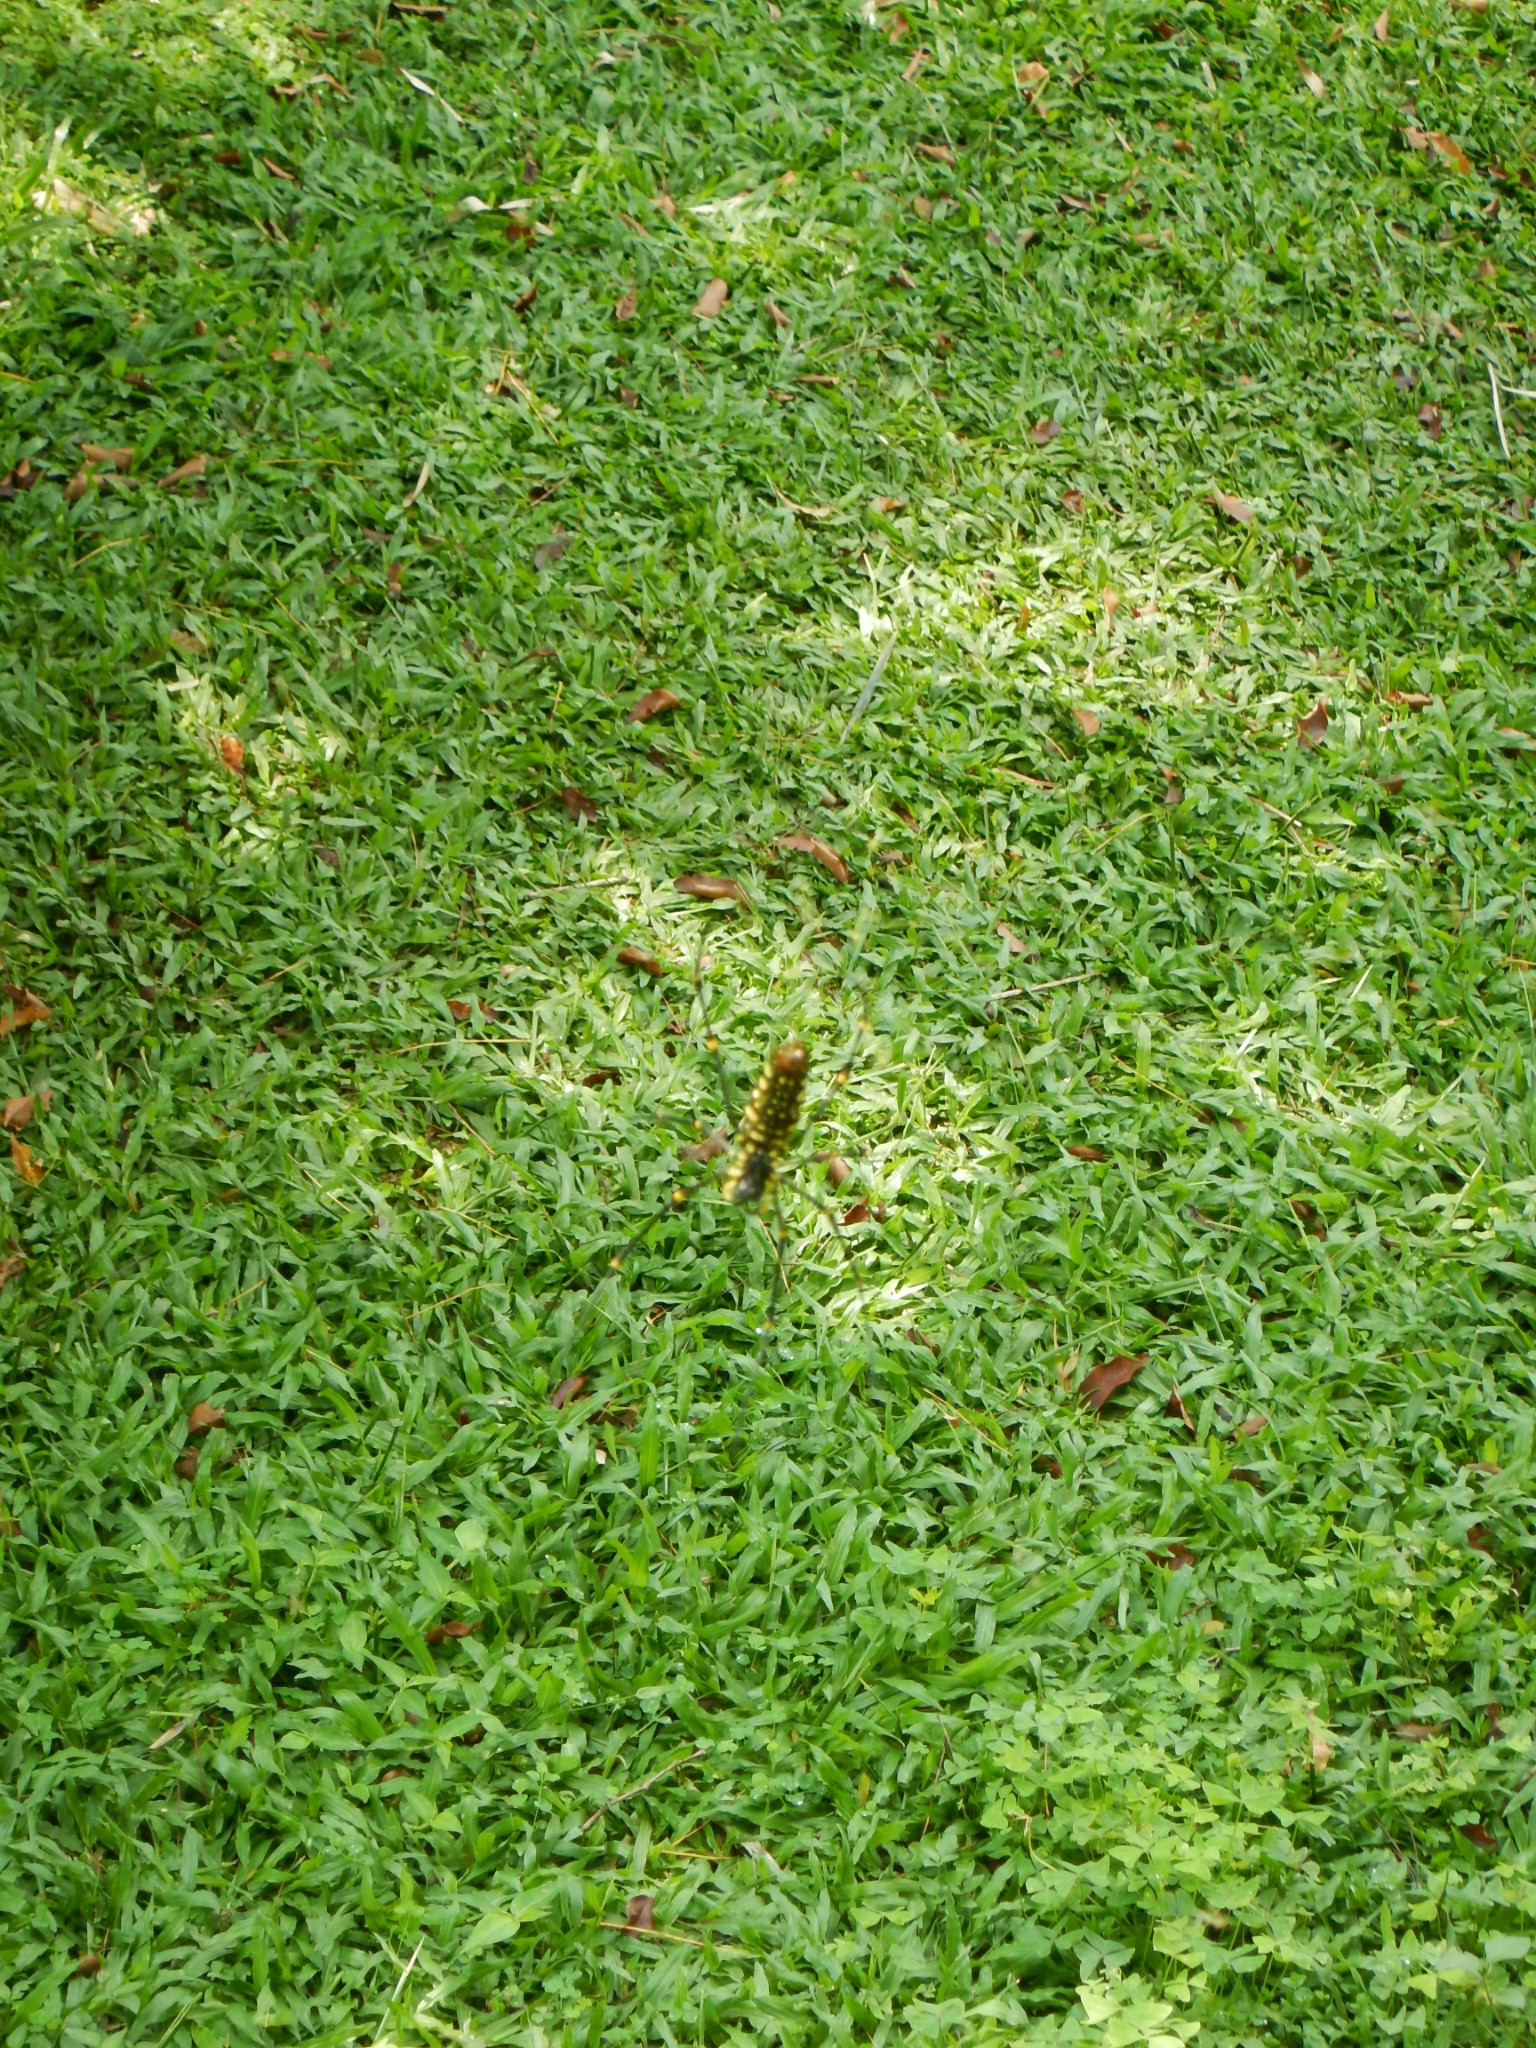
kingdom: Animalia
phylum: Arthropoda
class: Arachnida
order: Araneae
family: Araneidae
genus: Nephila
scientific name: Nephila pilipes
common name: Giant golden orb weaver
